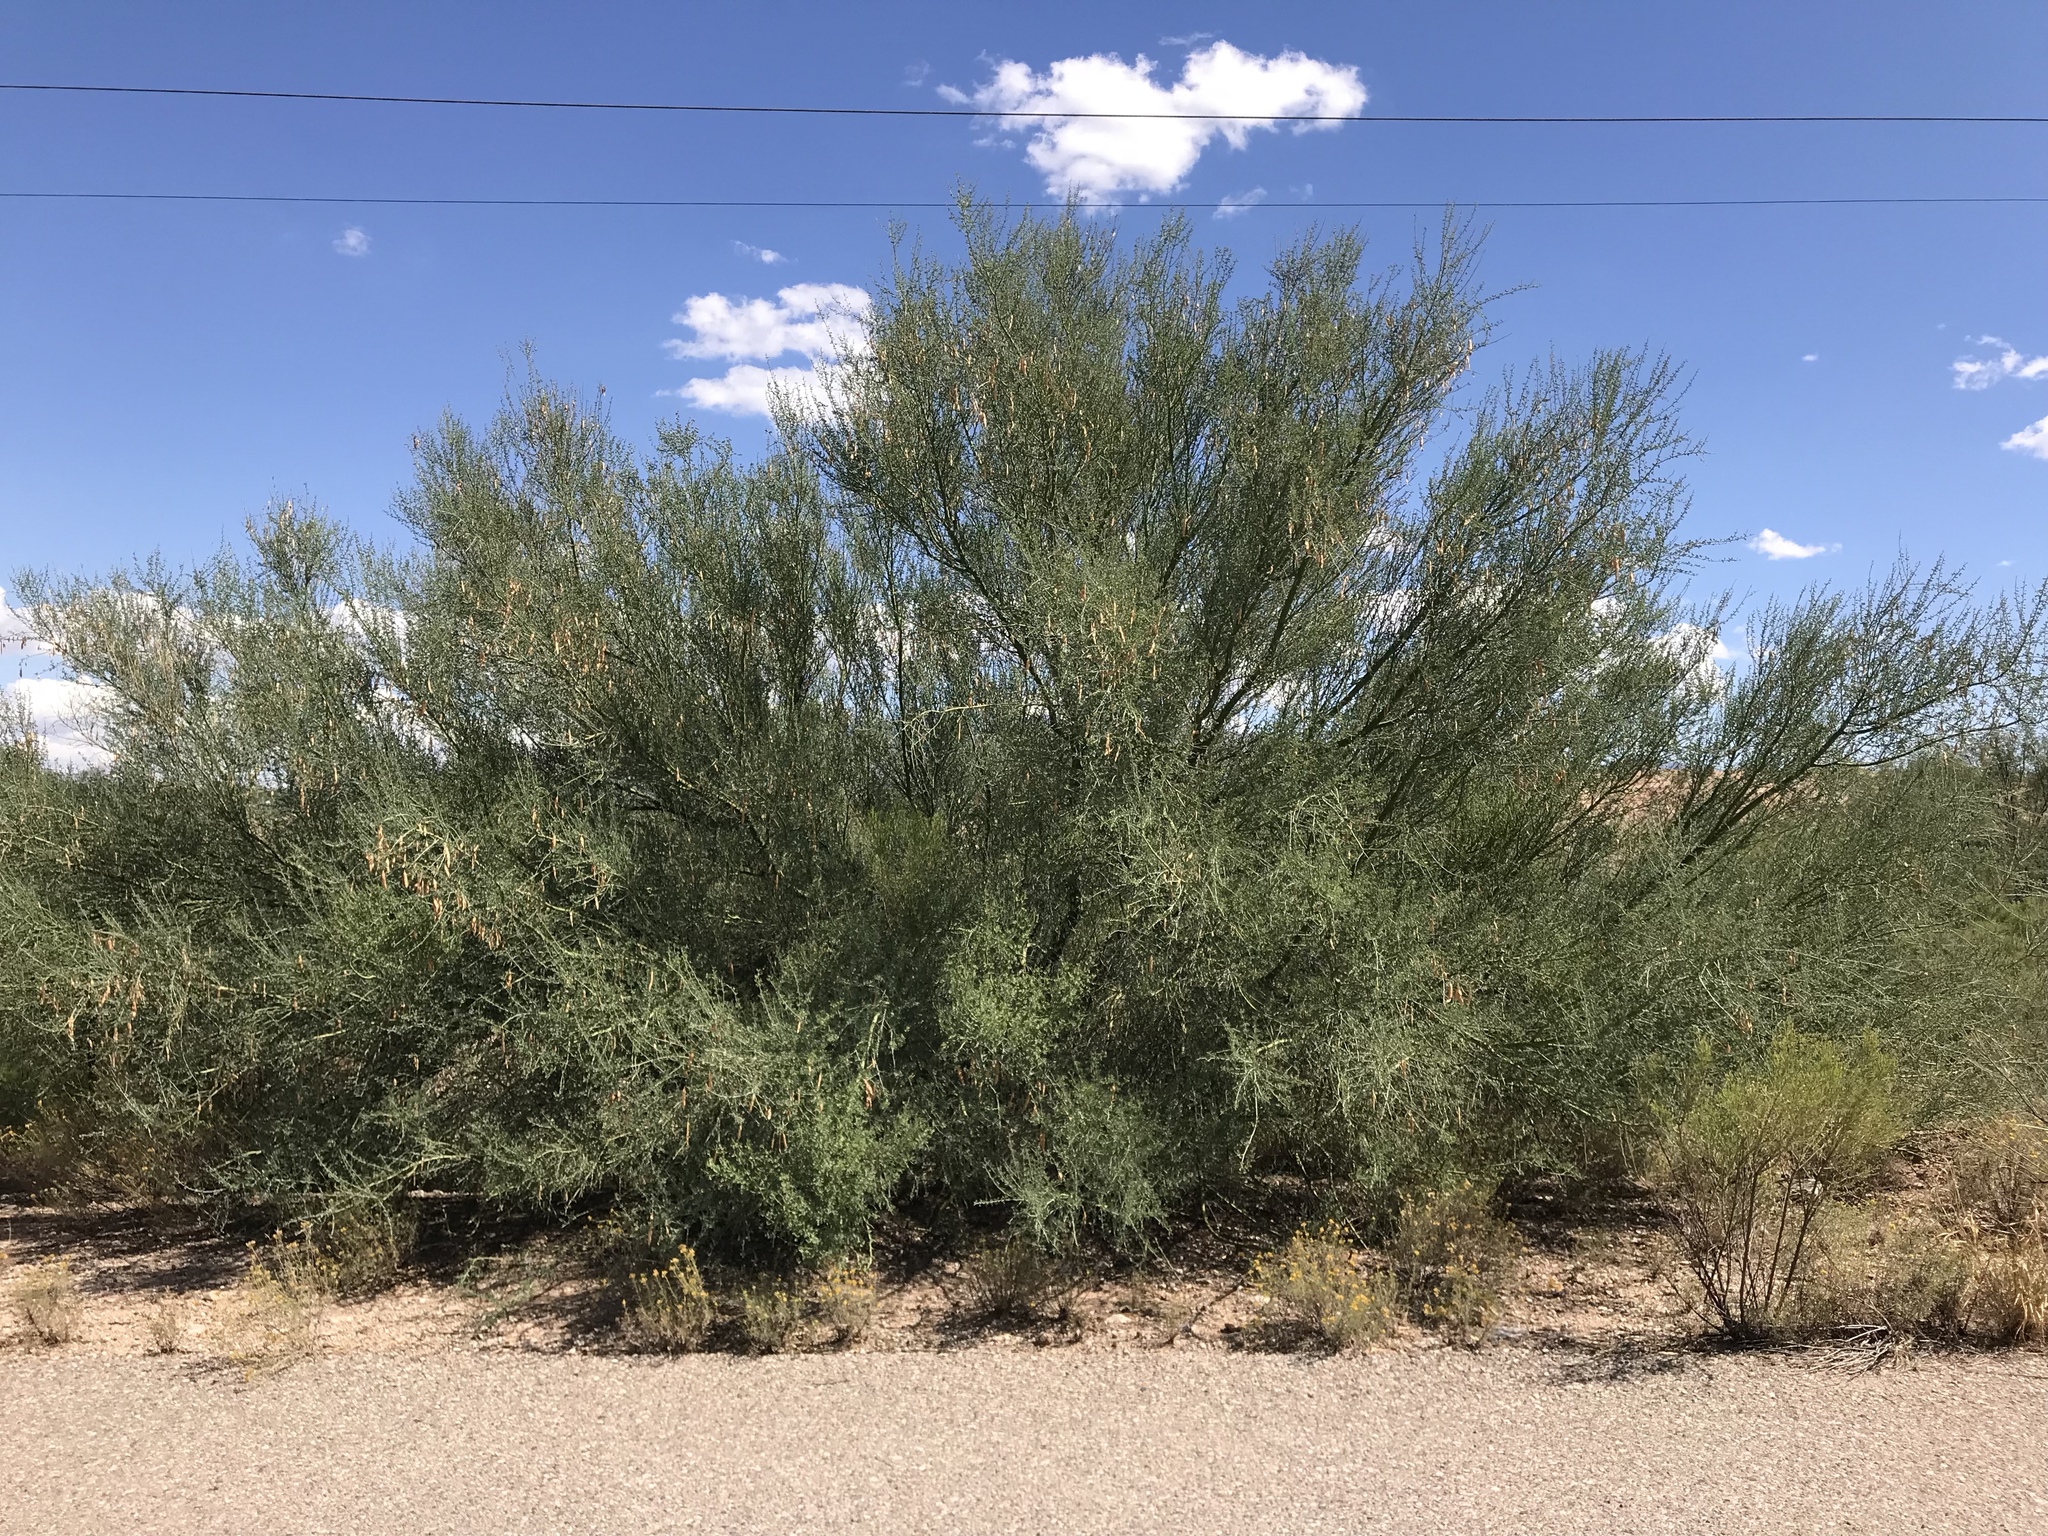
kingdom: Plantae
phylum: Tracheophyta
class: Magnoliopsida
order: Fabales
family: Fabaceae
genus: Parkinsonia
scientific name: Parkinsonia florida
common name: Blue paloverde
